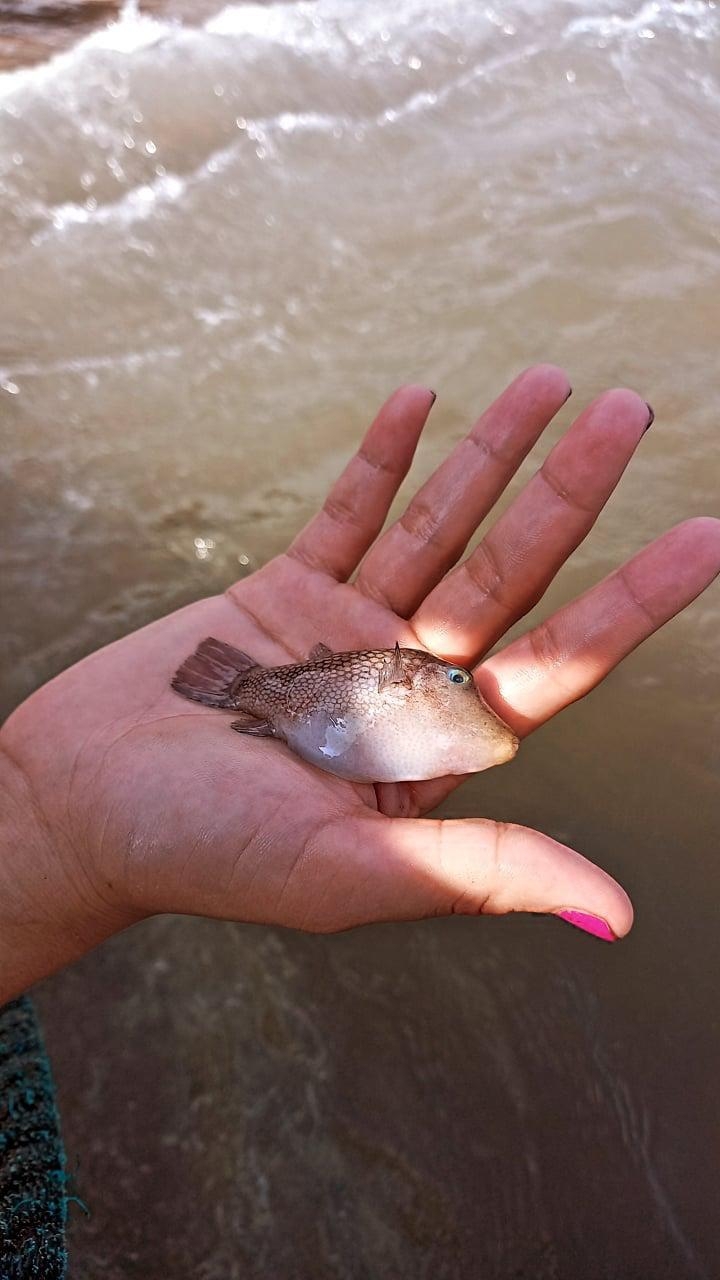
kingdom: Animalia
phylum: Chordata
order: Tetraodontiformes
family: Tetraodontidae
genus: Canthigaster
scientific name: Canthigaster punctatissima
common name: Spotted sharpnose puffer
